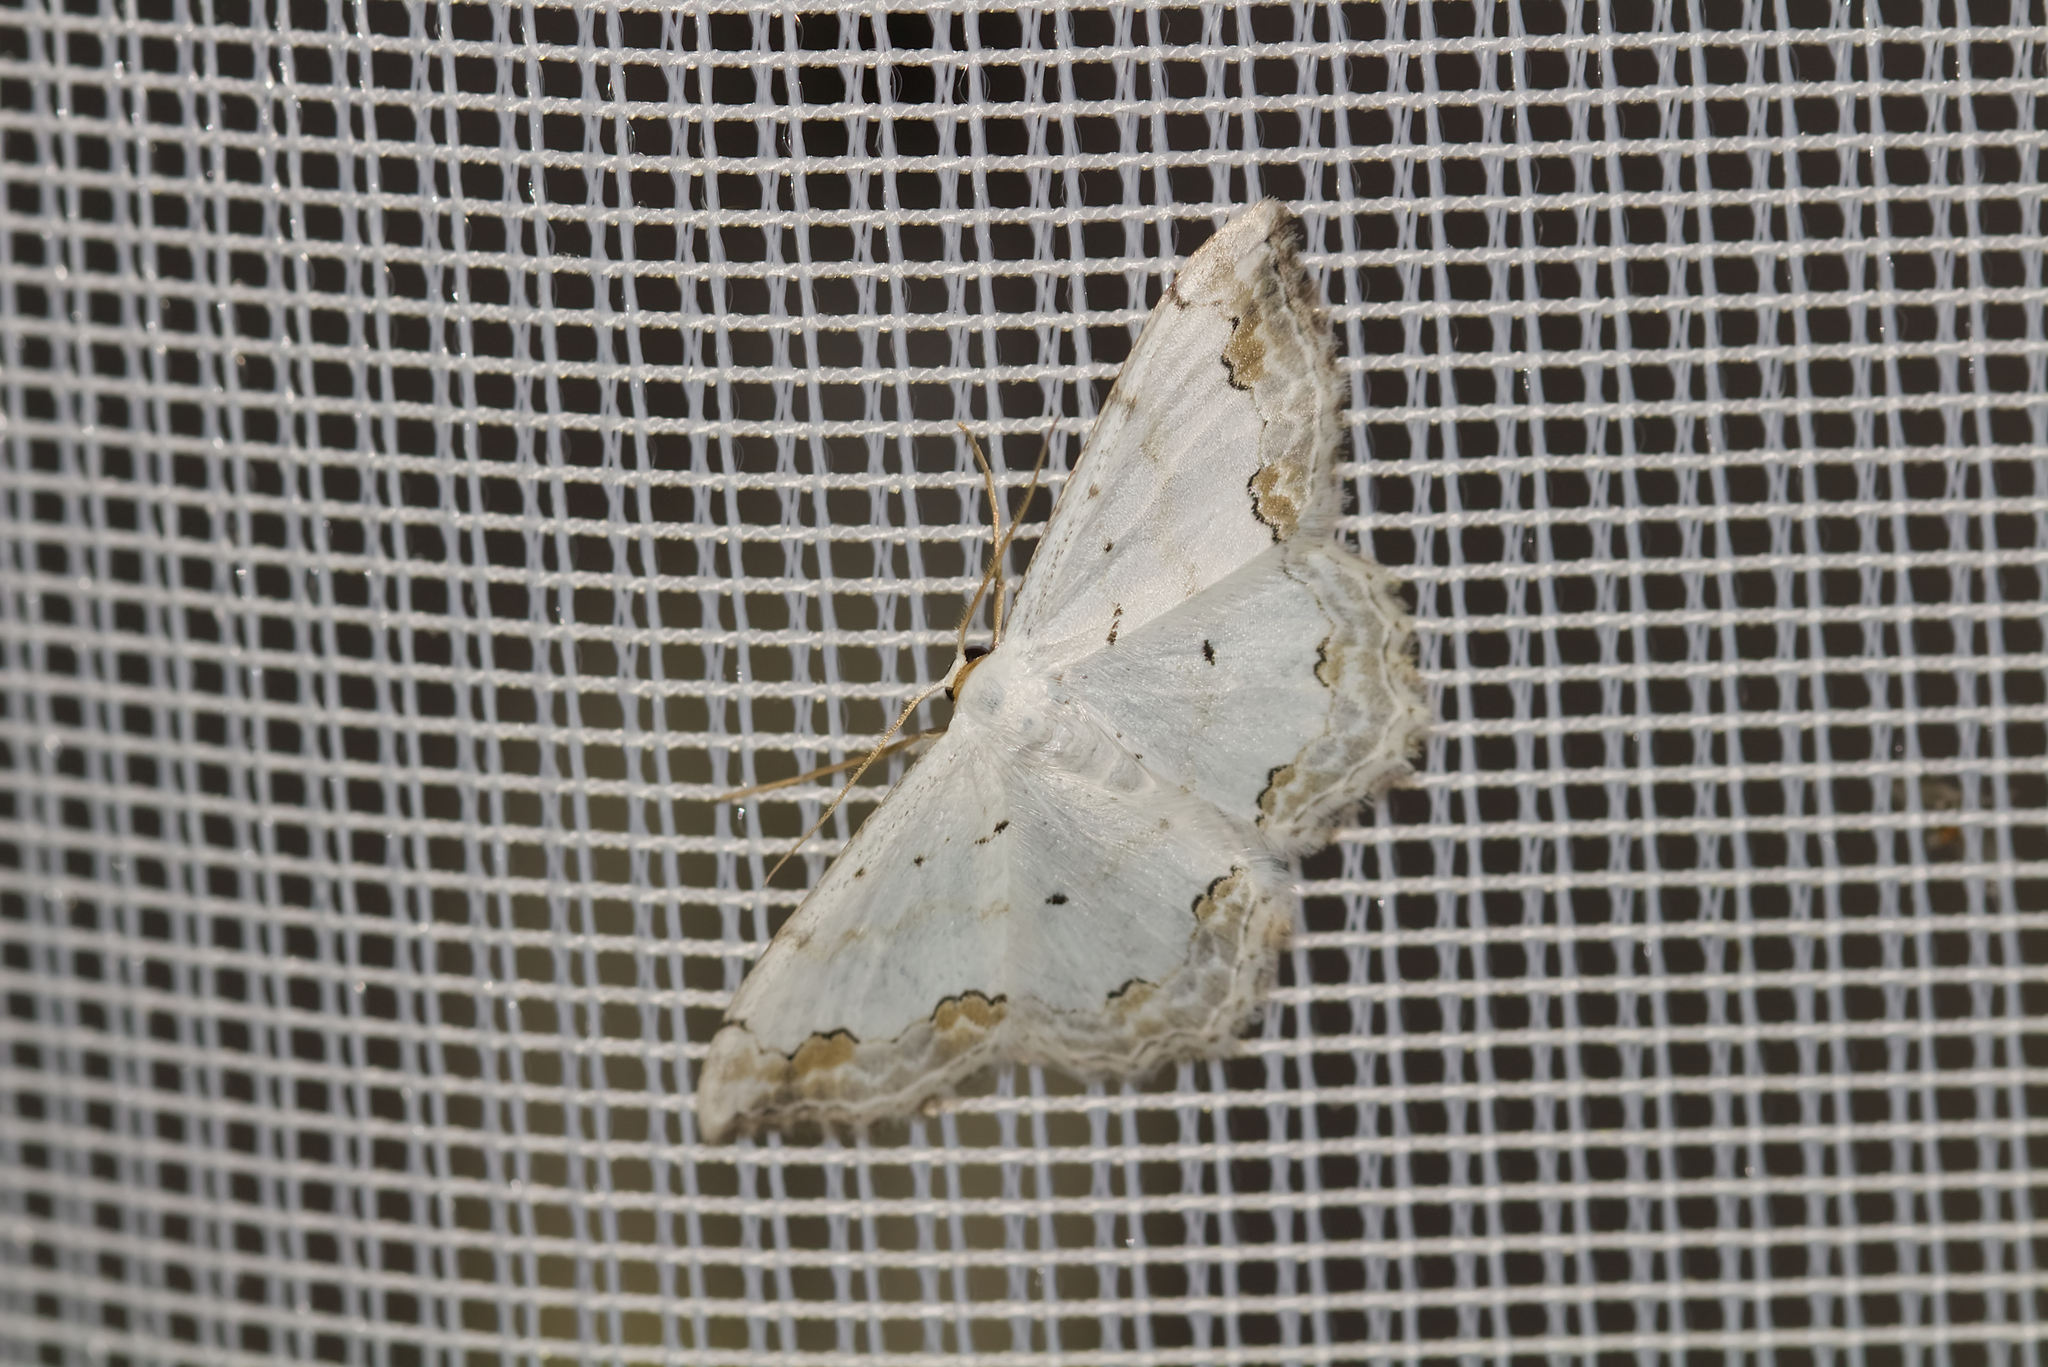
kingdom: Animalia
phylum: Arthropoda
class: Insecta
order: Lepidoptera
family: Geometridae
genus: Scopula
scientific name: Scopula ornata
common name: Lace border
